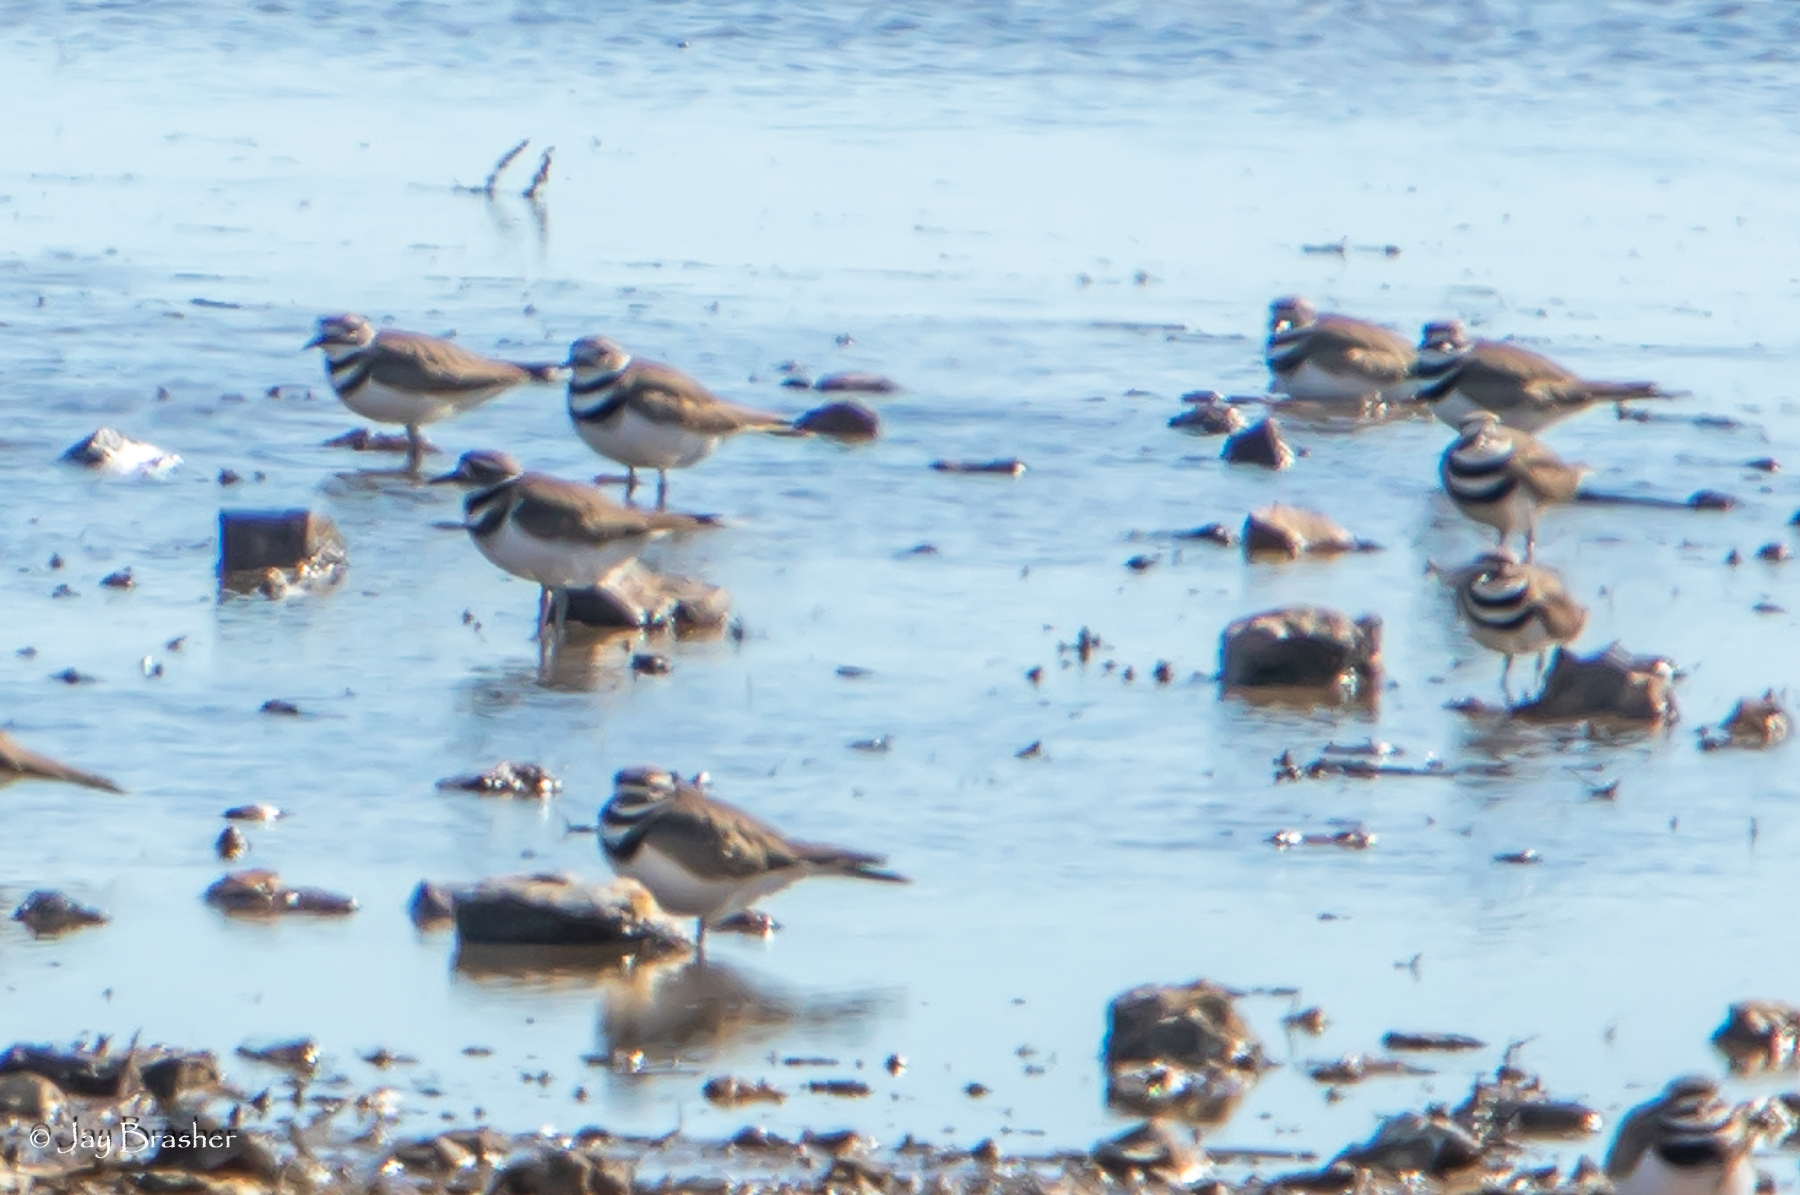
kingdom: Animalia
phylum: Chordata
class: Aves
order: Charadriiformes
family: Charadriidae
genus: Charadrius
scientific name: Charadrius vociferus
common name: Killdeer
